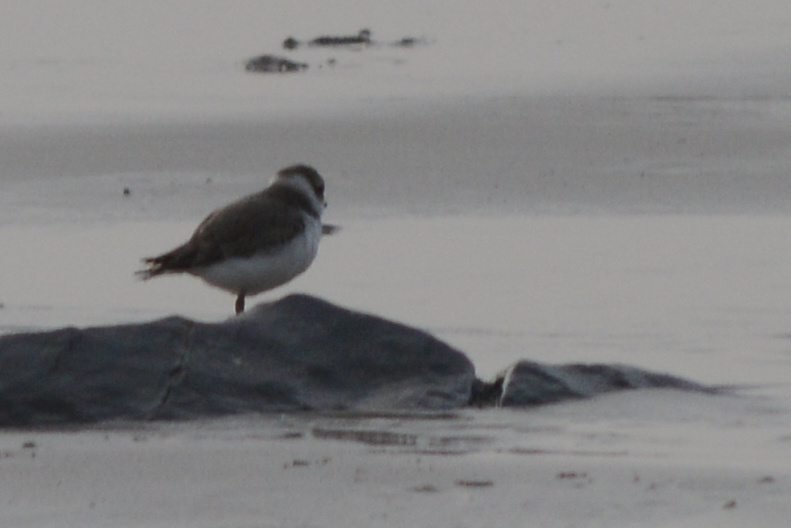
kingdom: Animalia
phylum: Chordata
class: Aves
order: Charadriiformes
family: Charadriidae
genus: Charadrius
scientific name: Charadrius semipalmatus
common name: Semipalmated plover
